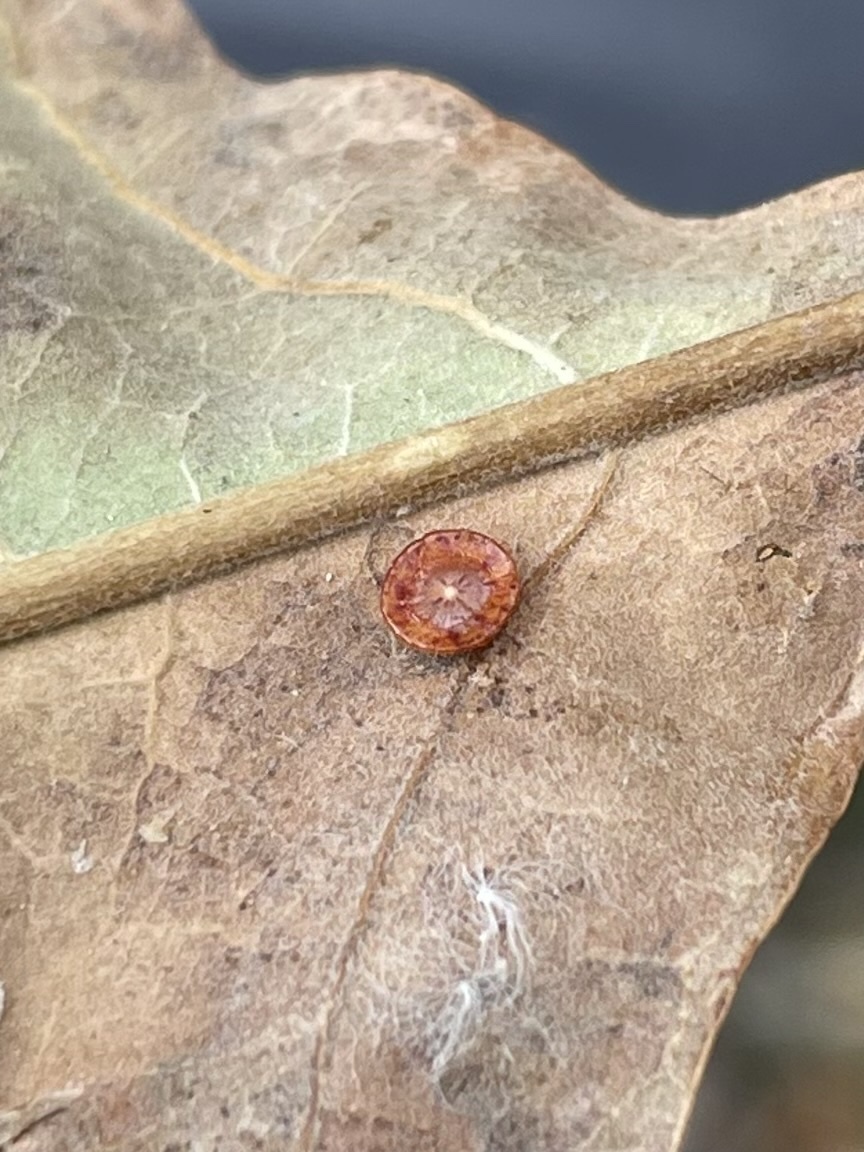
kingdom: Animalia
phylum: Arthropoda
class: Insecta
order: Hymenoptera
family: Cynipidae
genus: Andricus
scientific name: Andricus
